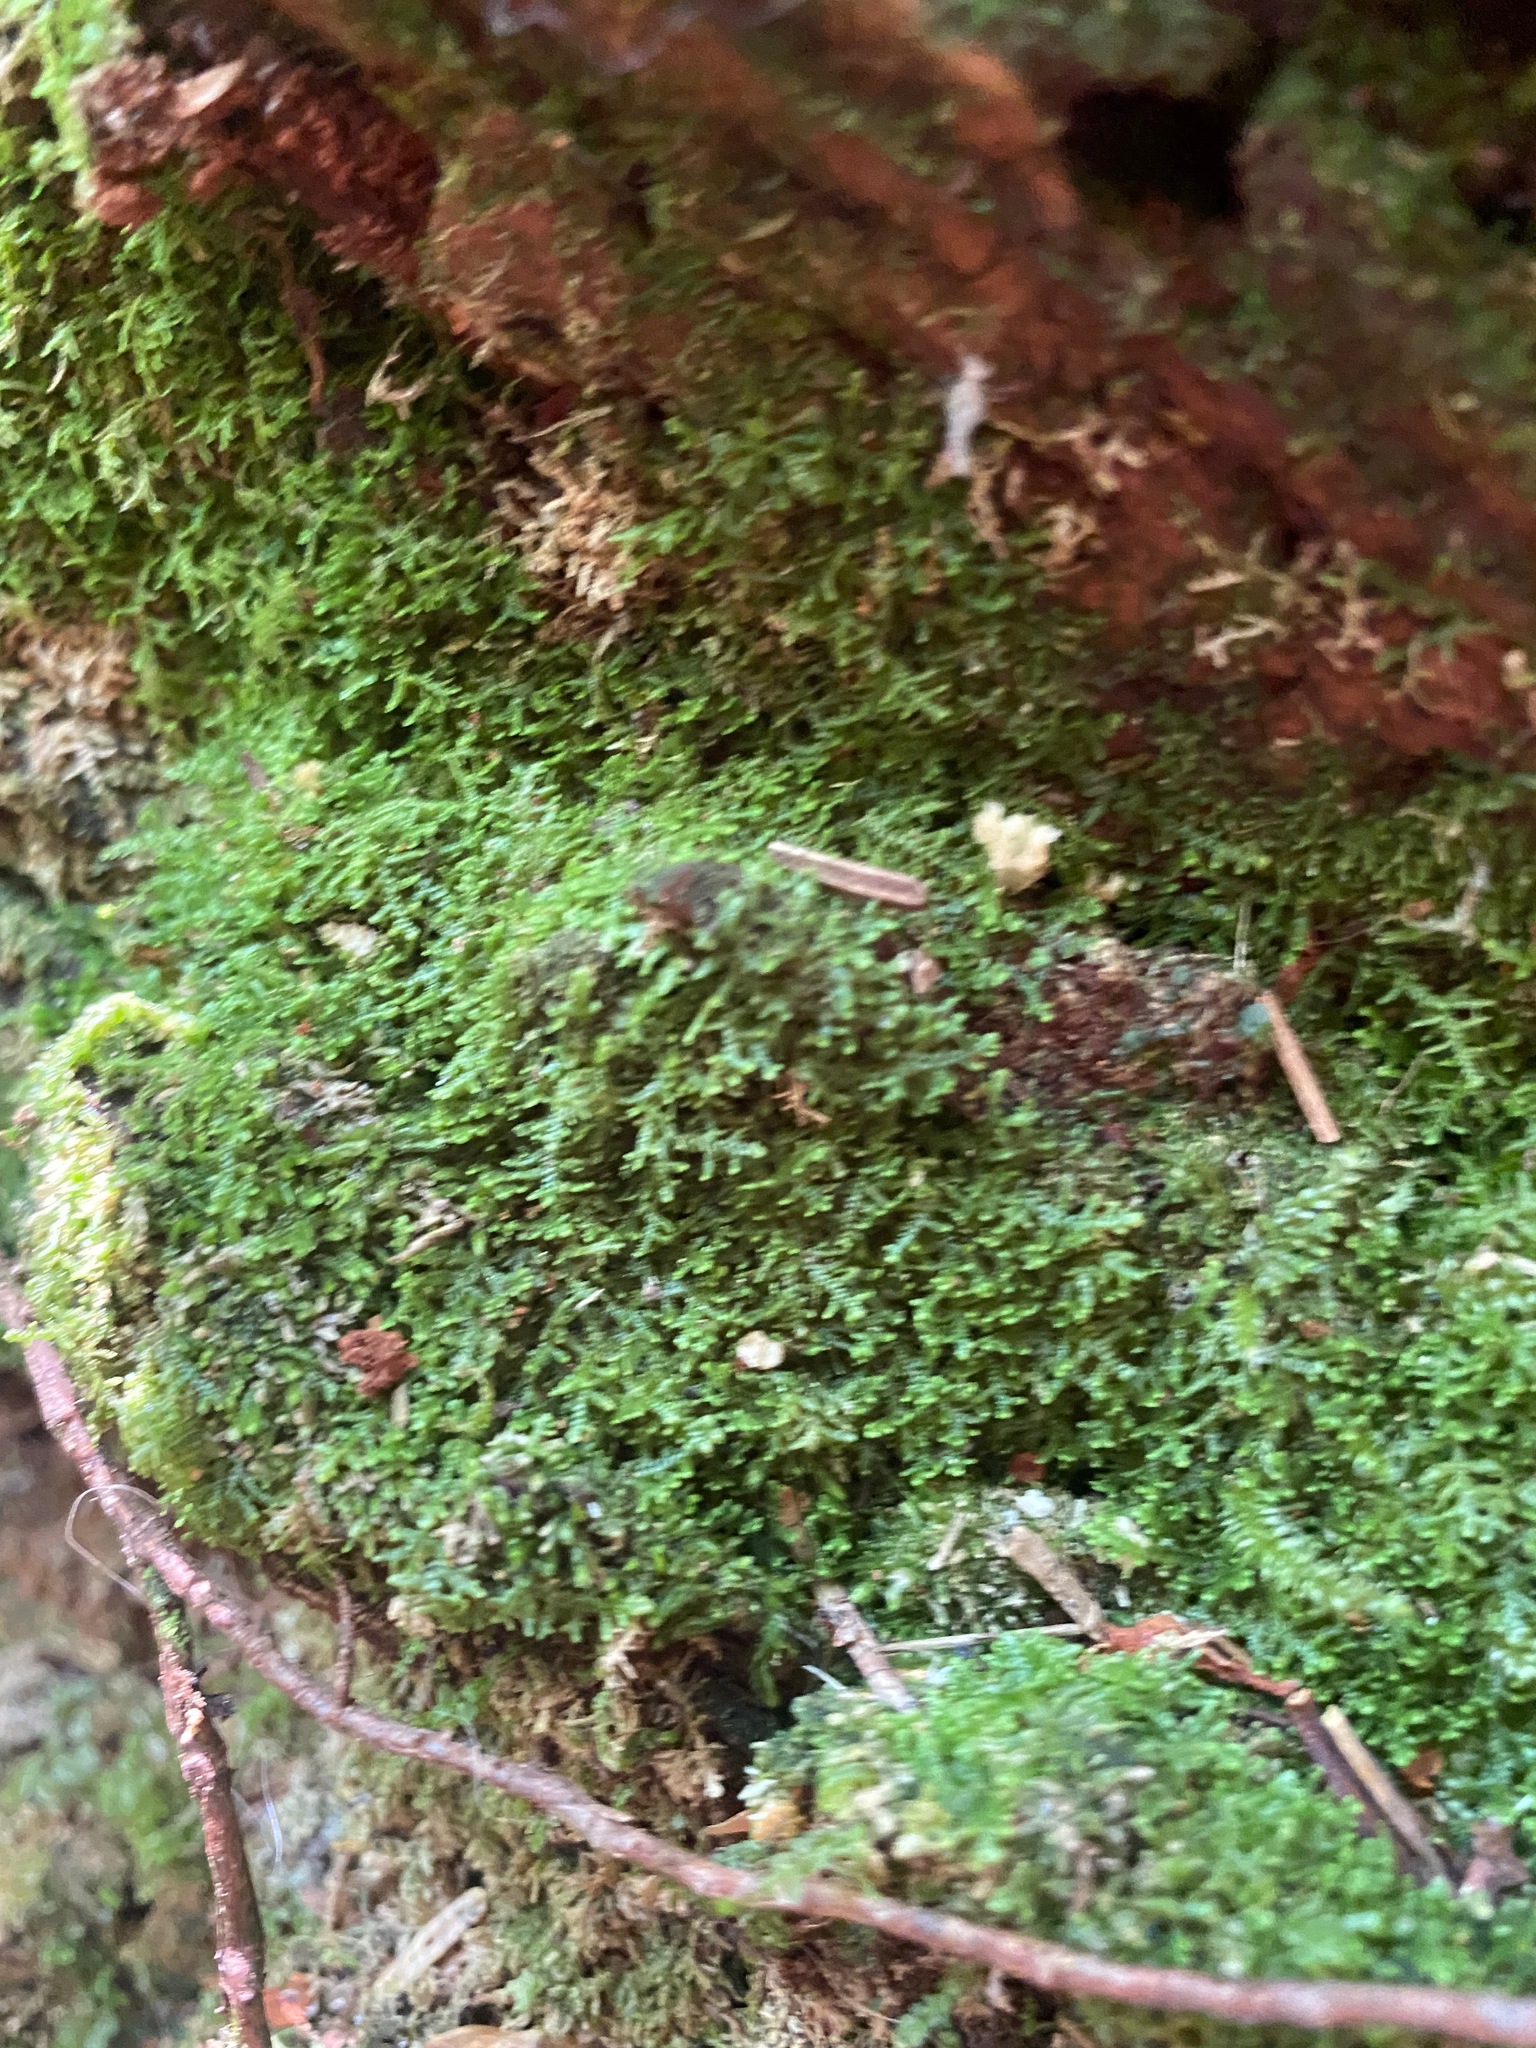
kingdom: Plantae
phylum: Marchantiophyta
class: Jungermanniopsida
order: Jungermanniales
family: Lepidoziaceae
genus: Lepidozia
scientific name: Lepidozia reptans
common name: Creeping fingerwort
